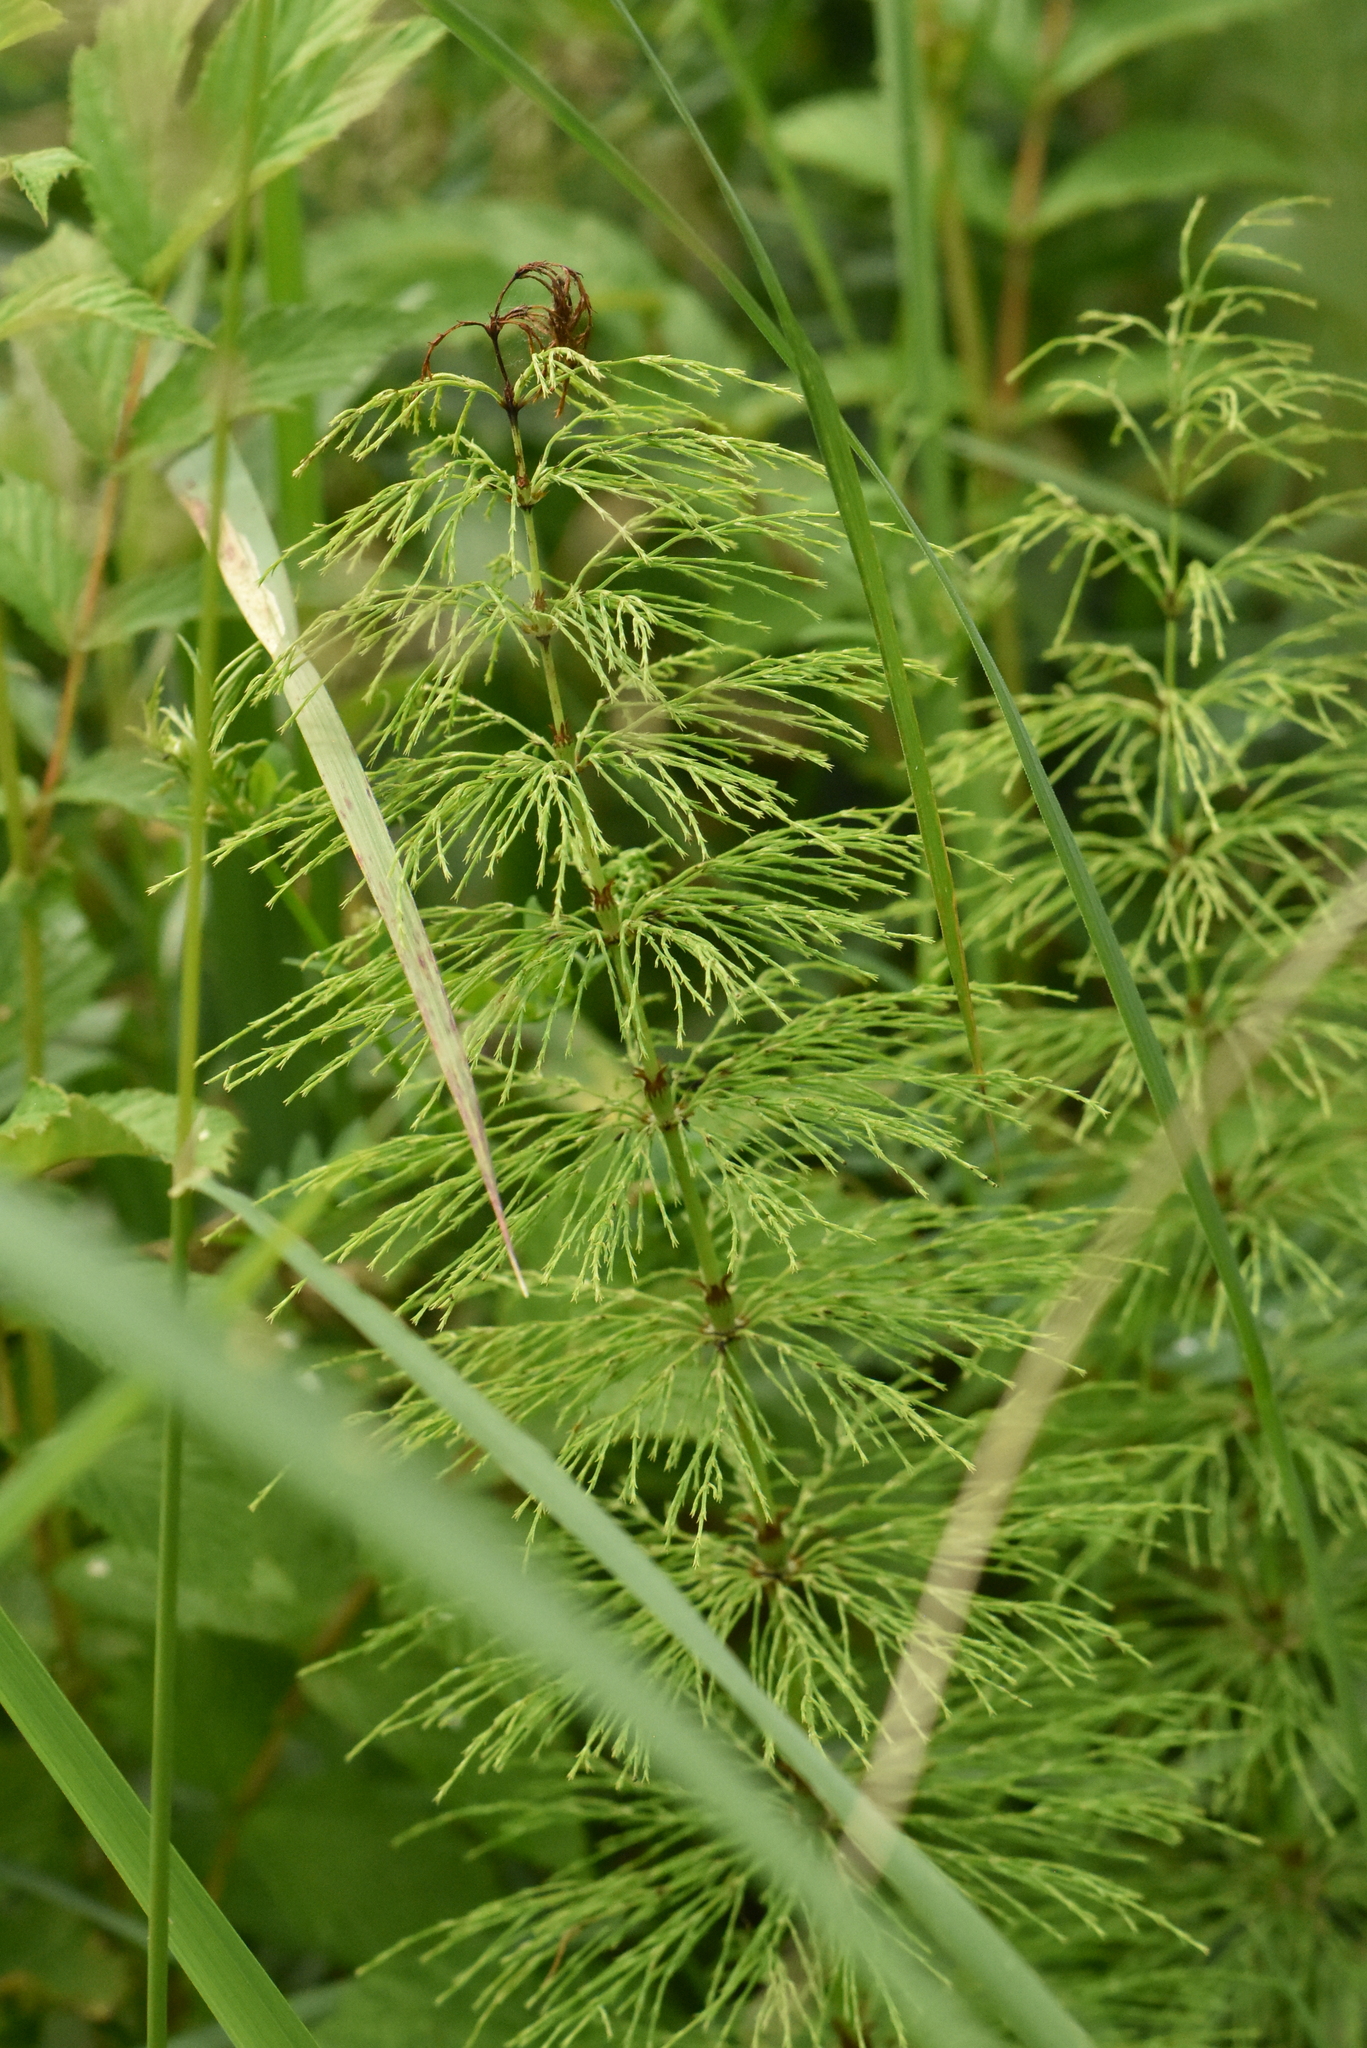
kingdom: Plantae
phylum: Tracheophyta
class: Polypodiopsida
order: Equisetales
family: Equisetaceae
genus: Equisetum
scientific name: Equisetum sylvaticum
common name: Wood horsetail
